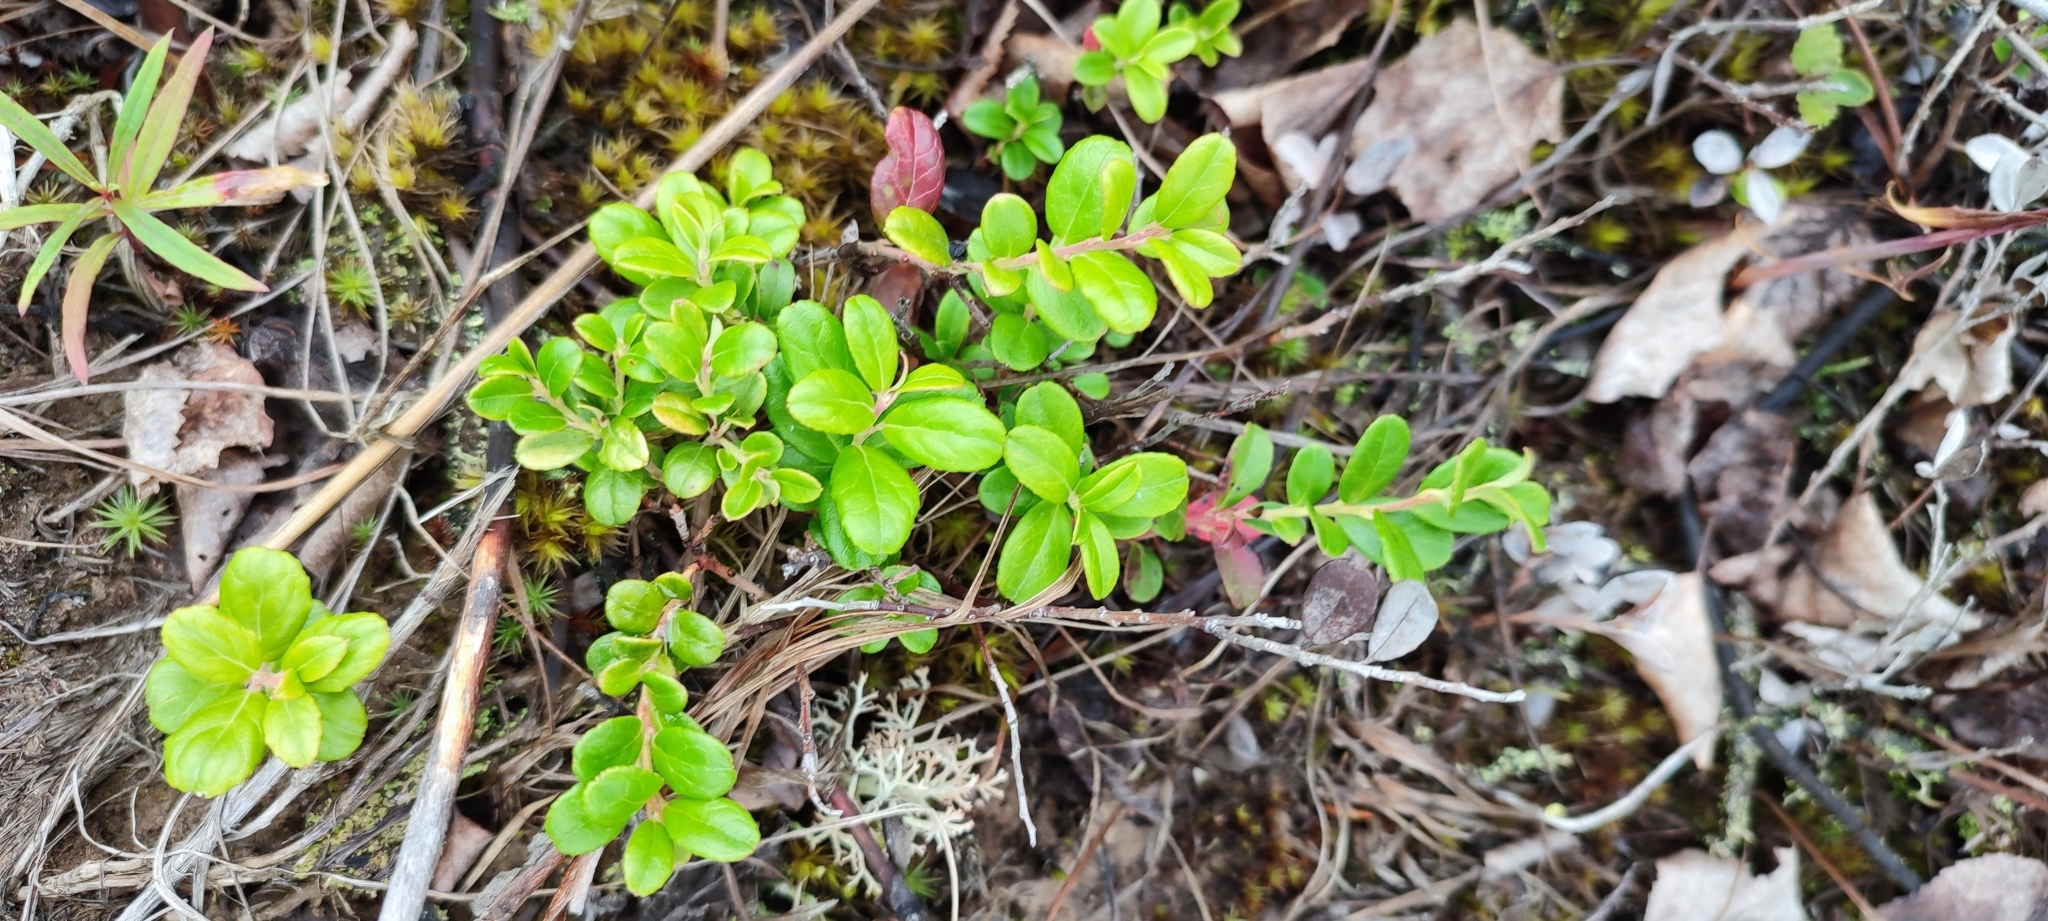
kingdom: Plantae
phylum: Tracheophyta
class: Magnoliopsida
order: Ericales
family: Ericaceae
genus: Vaccinium
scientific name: Vaccinium vitis-idaea
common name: Cowberry
